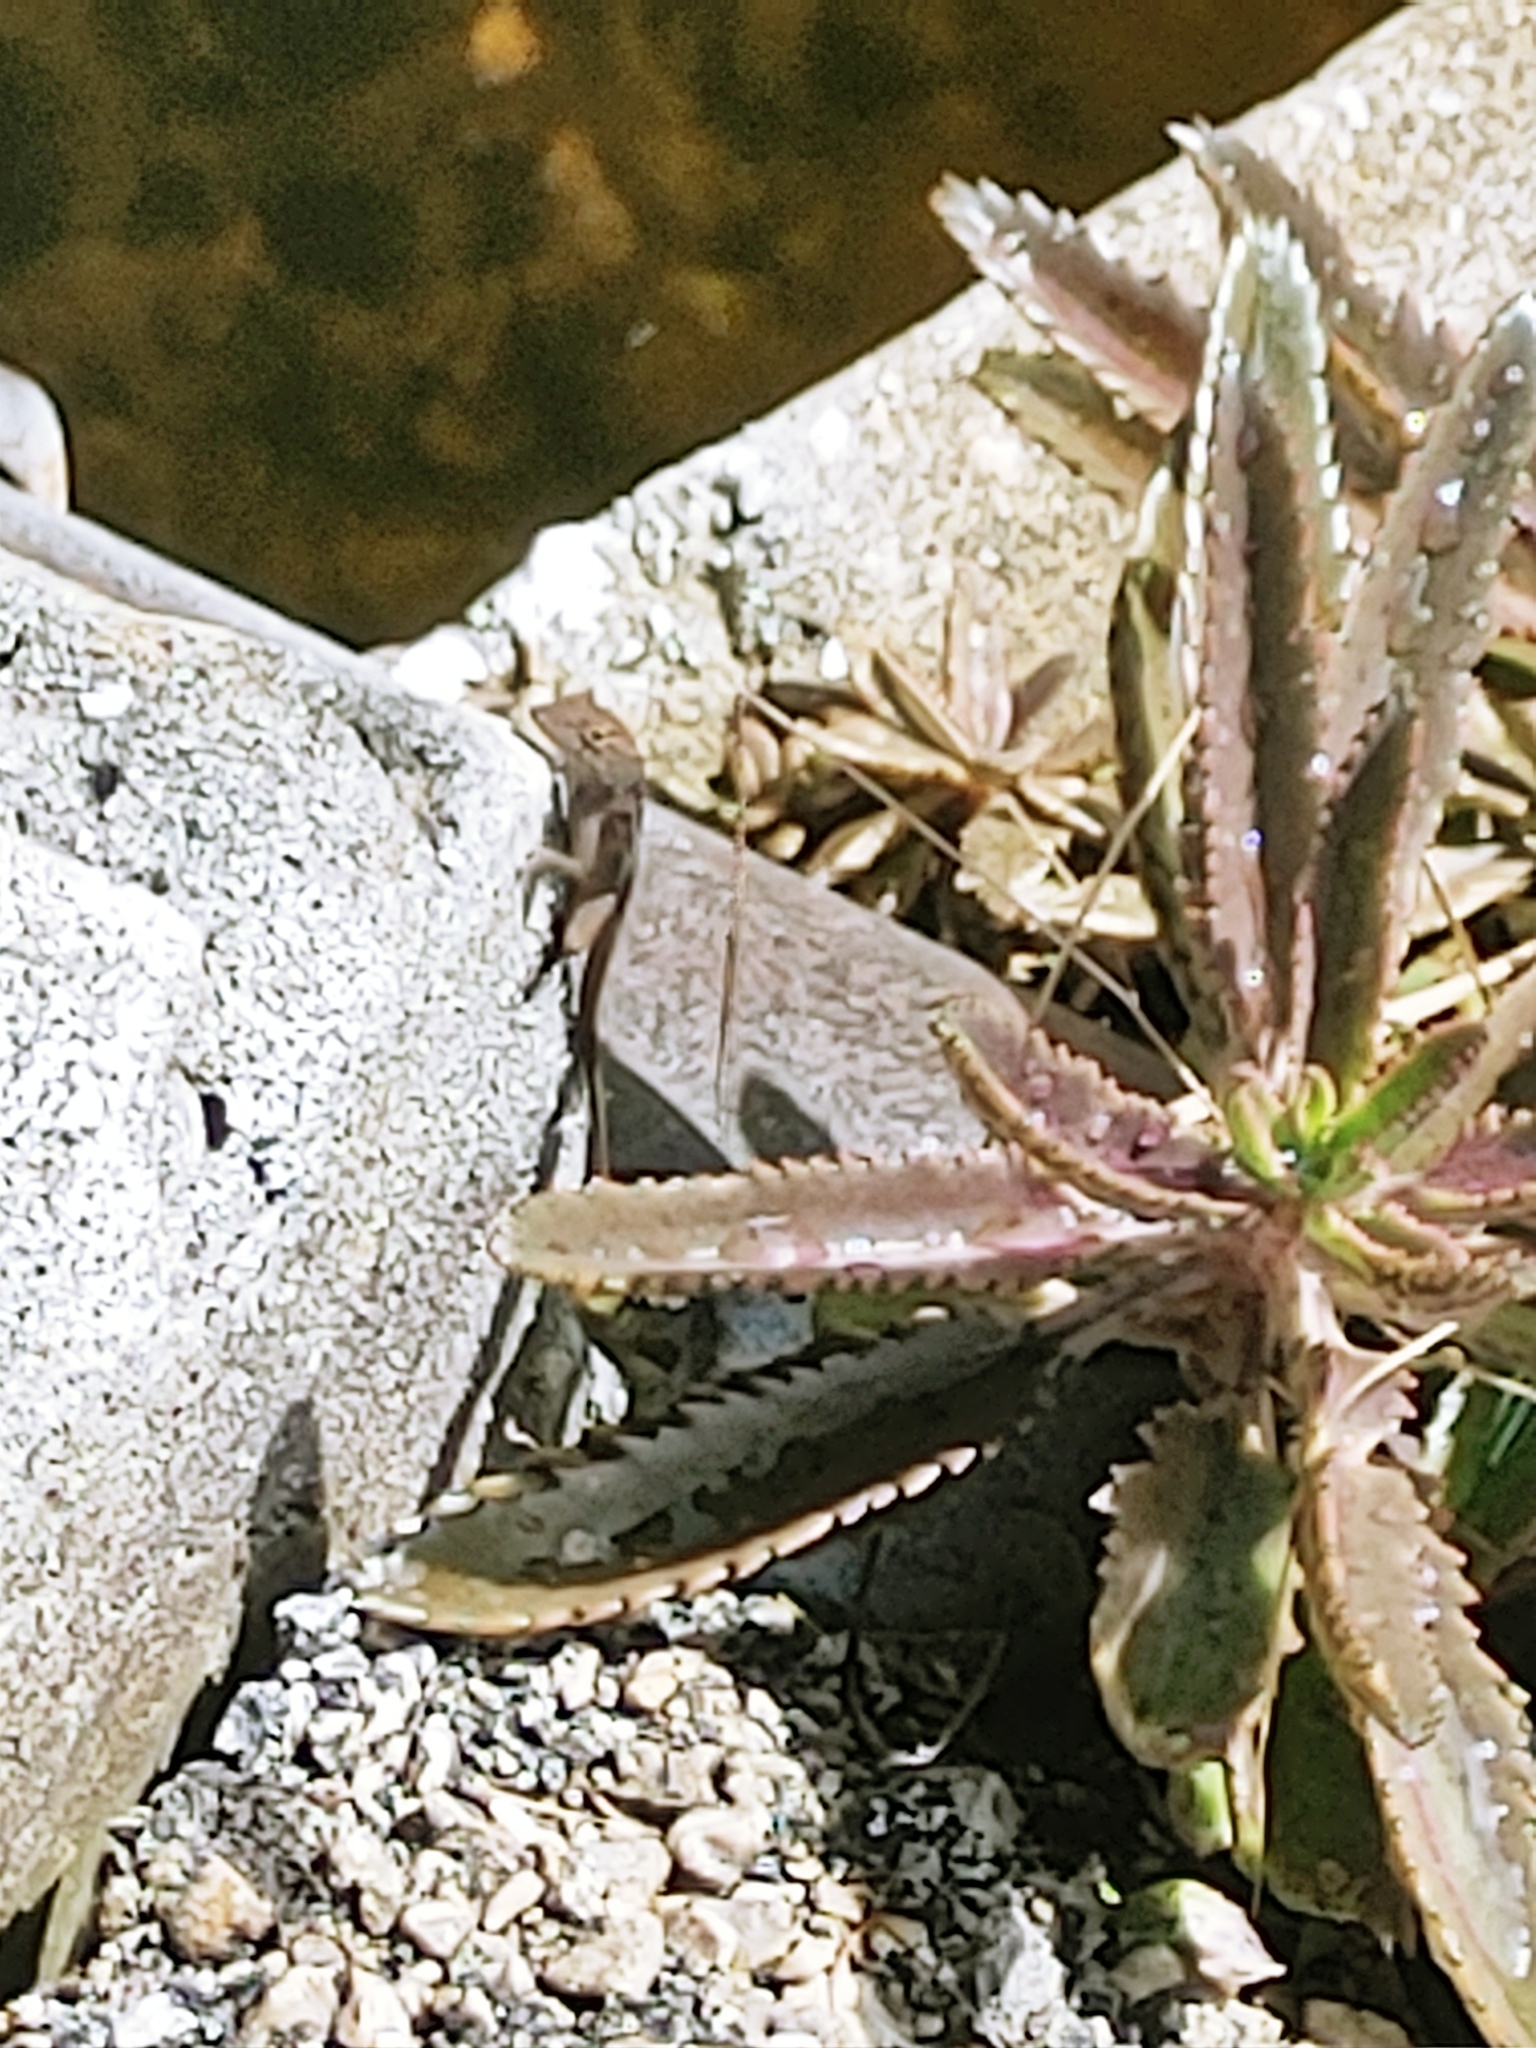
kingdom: Animalia
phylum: Chordata
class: Squamata
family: Dactyloidae
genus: Anolis
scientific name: Anolis sagrei
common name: Brown anole
